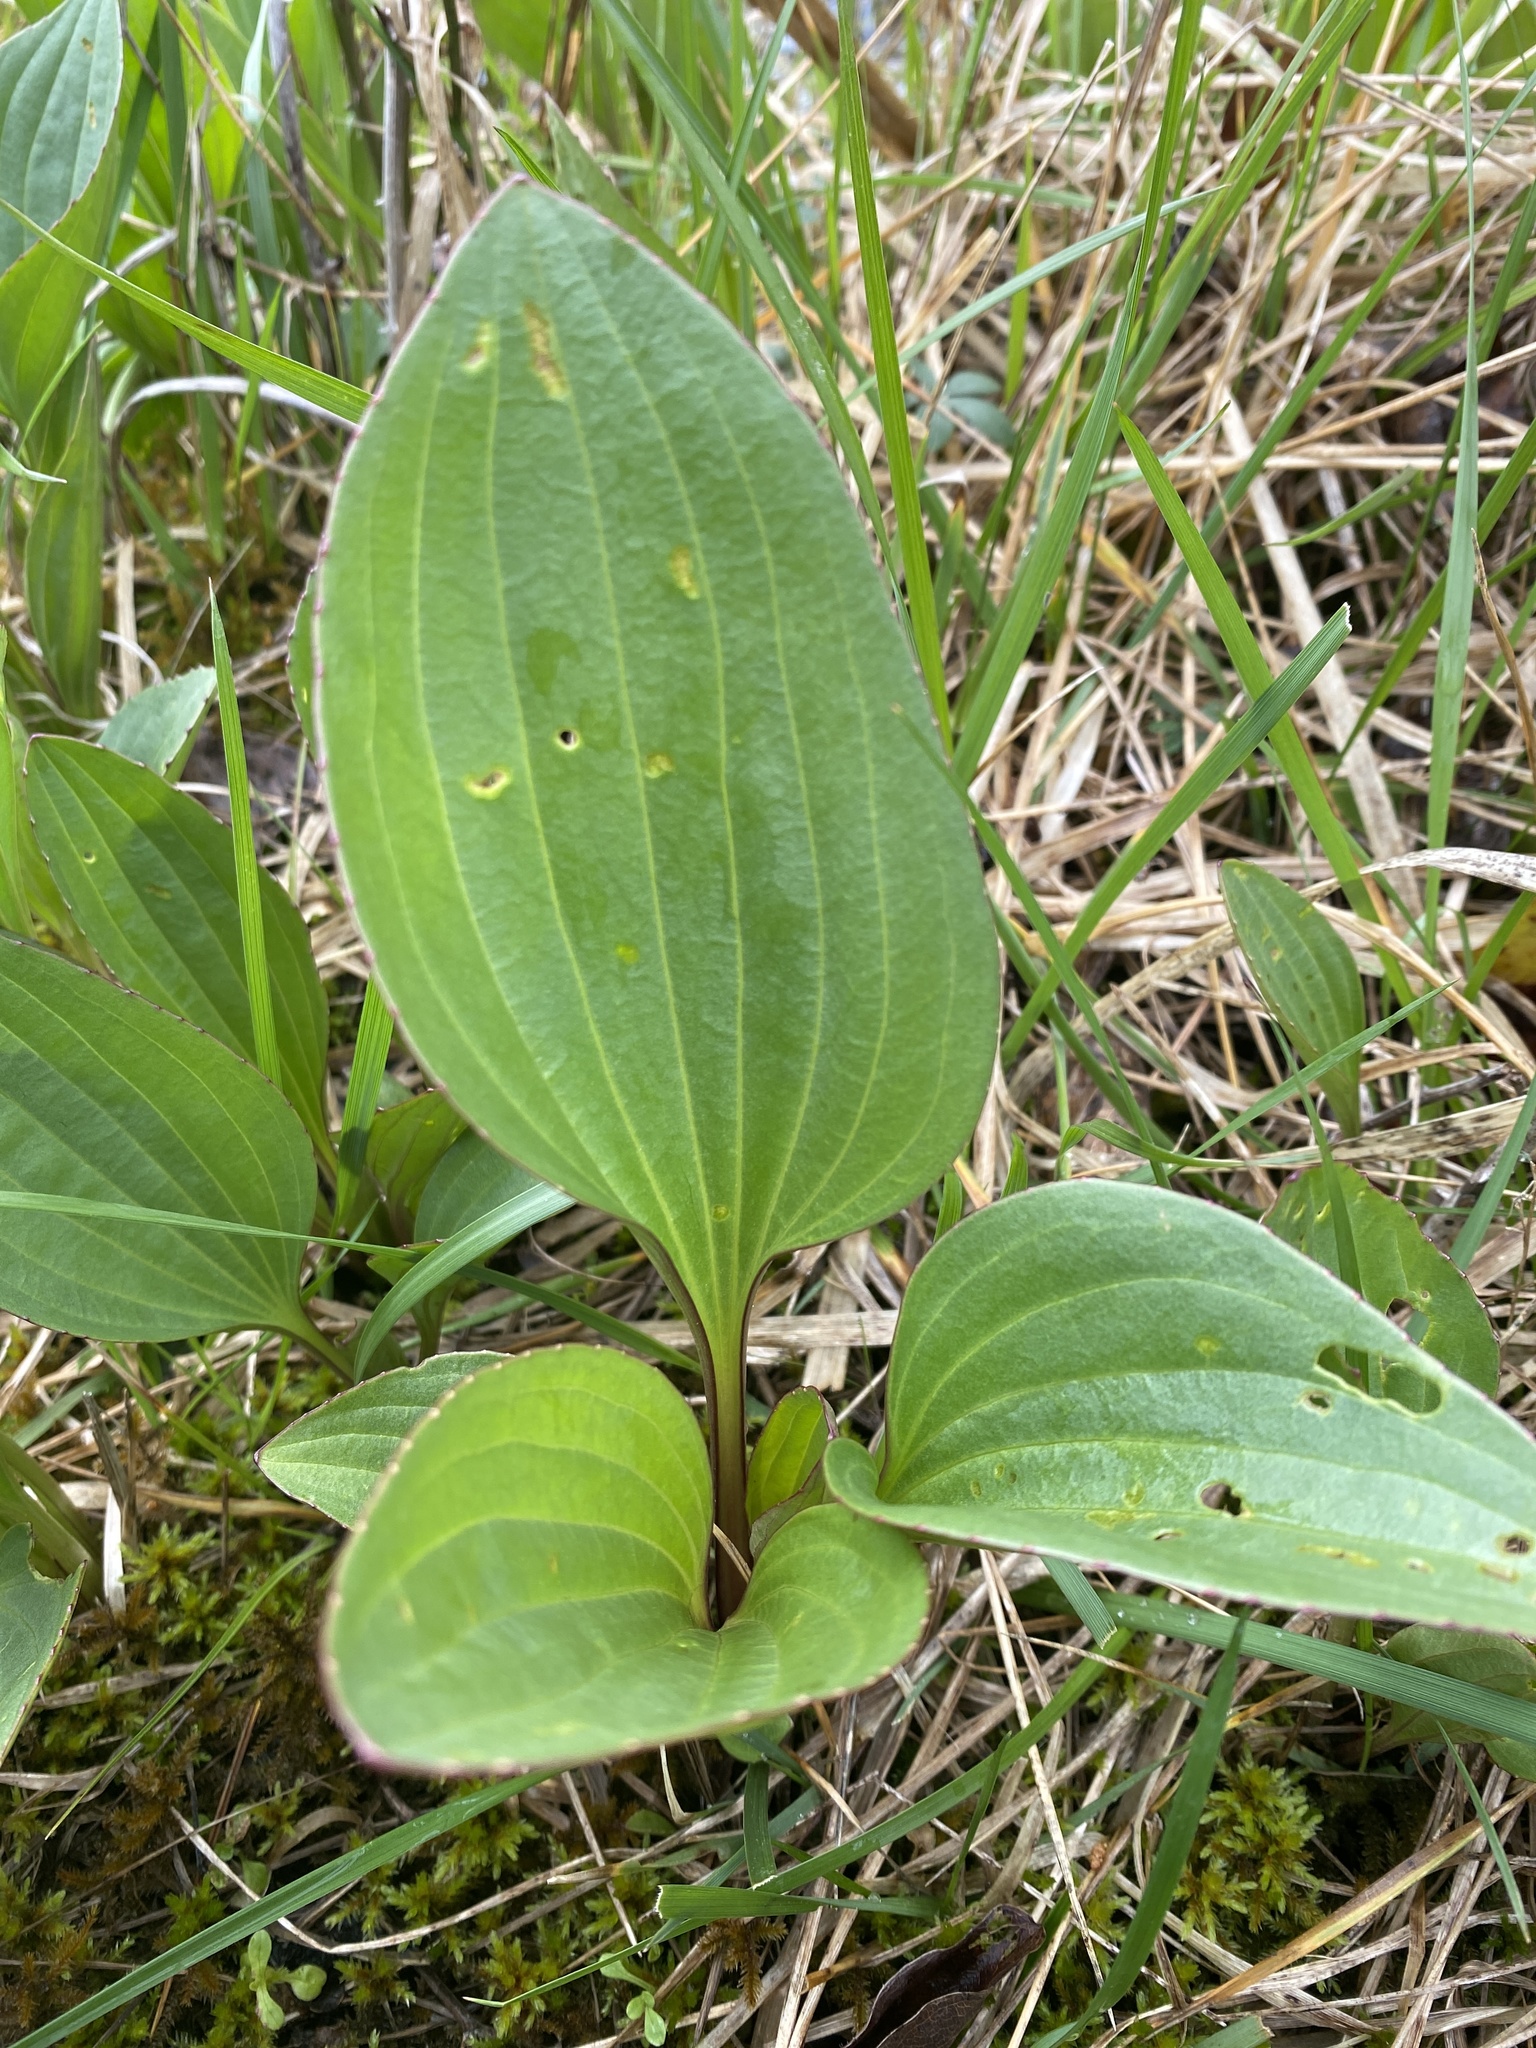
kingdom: Plantae
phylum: Tracheophyta
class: Magnoliopsida
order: Asterales
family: Asteraceae
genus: Arnoglossum
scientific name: Arnoglossum plantagineum
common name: Groove-stemmed indian-plantain
